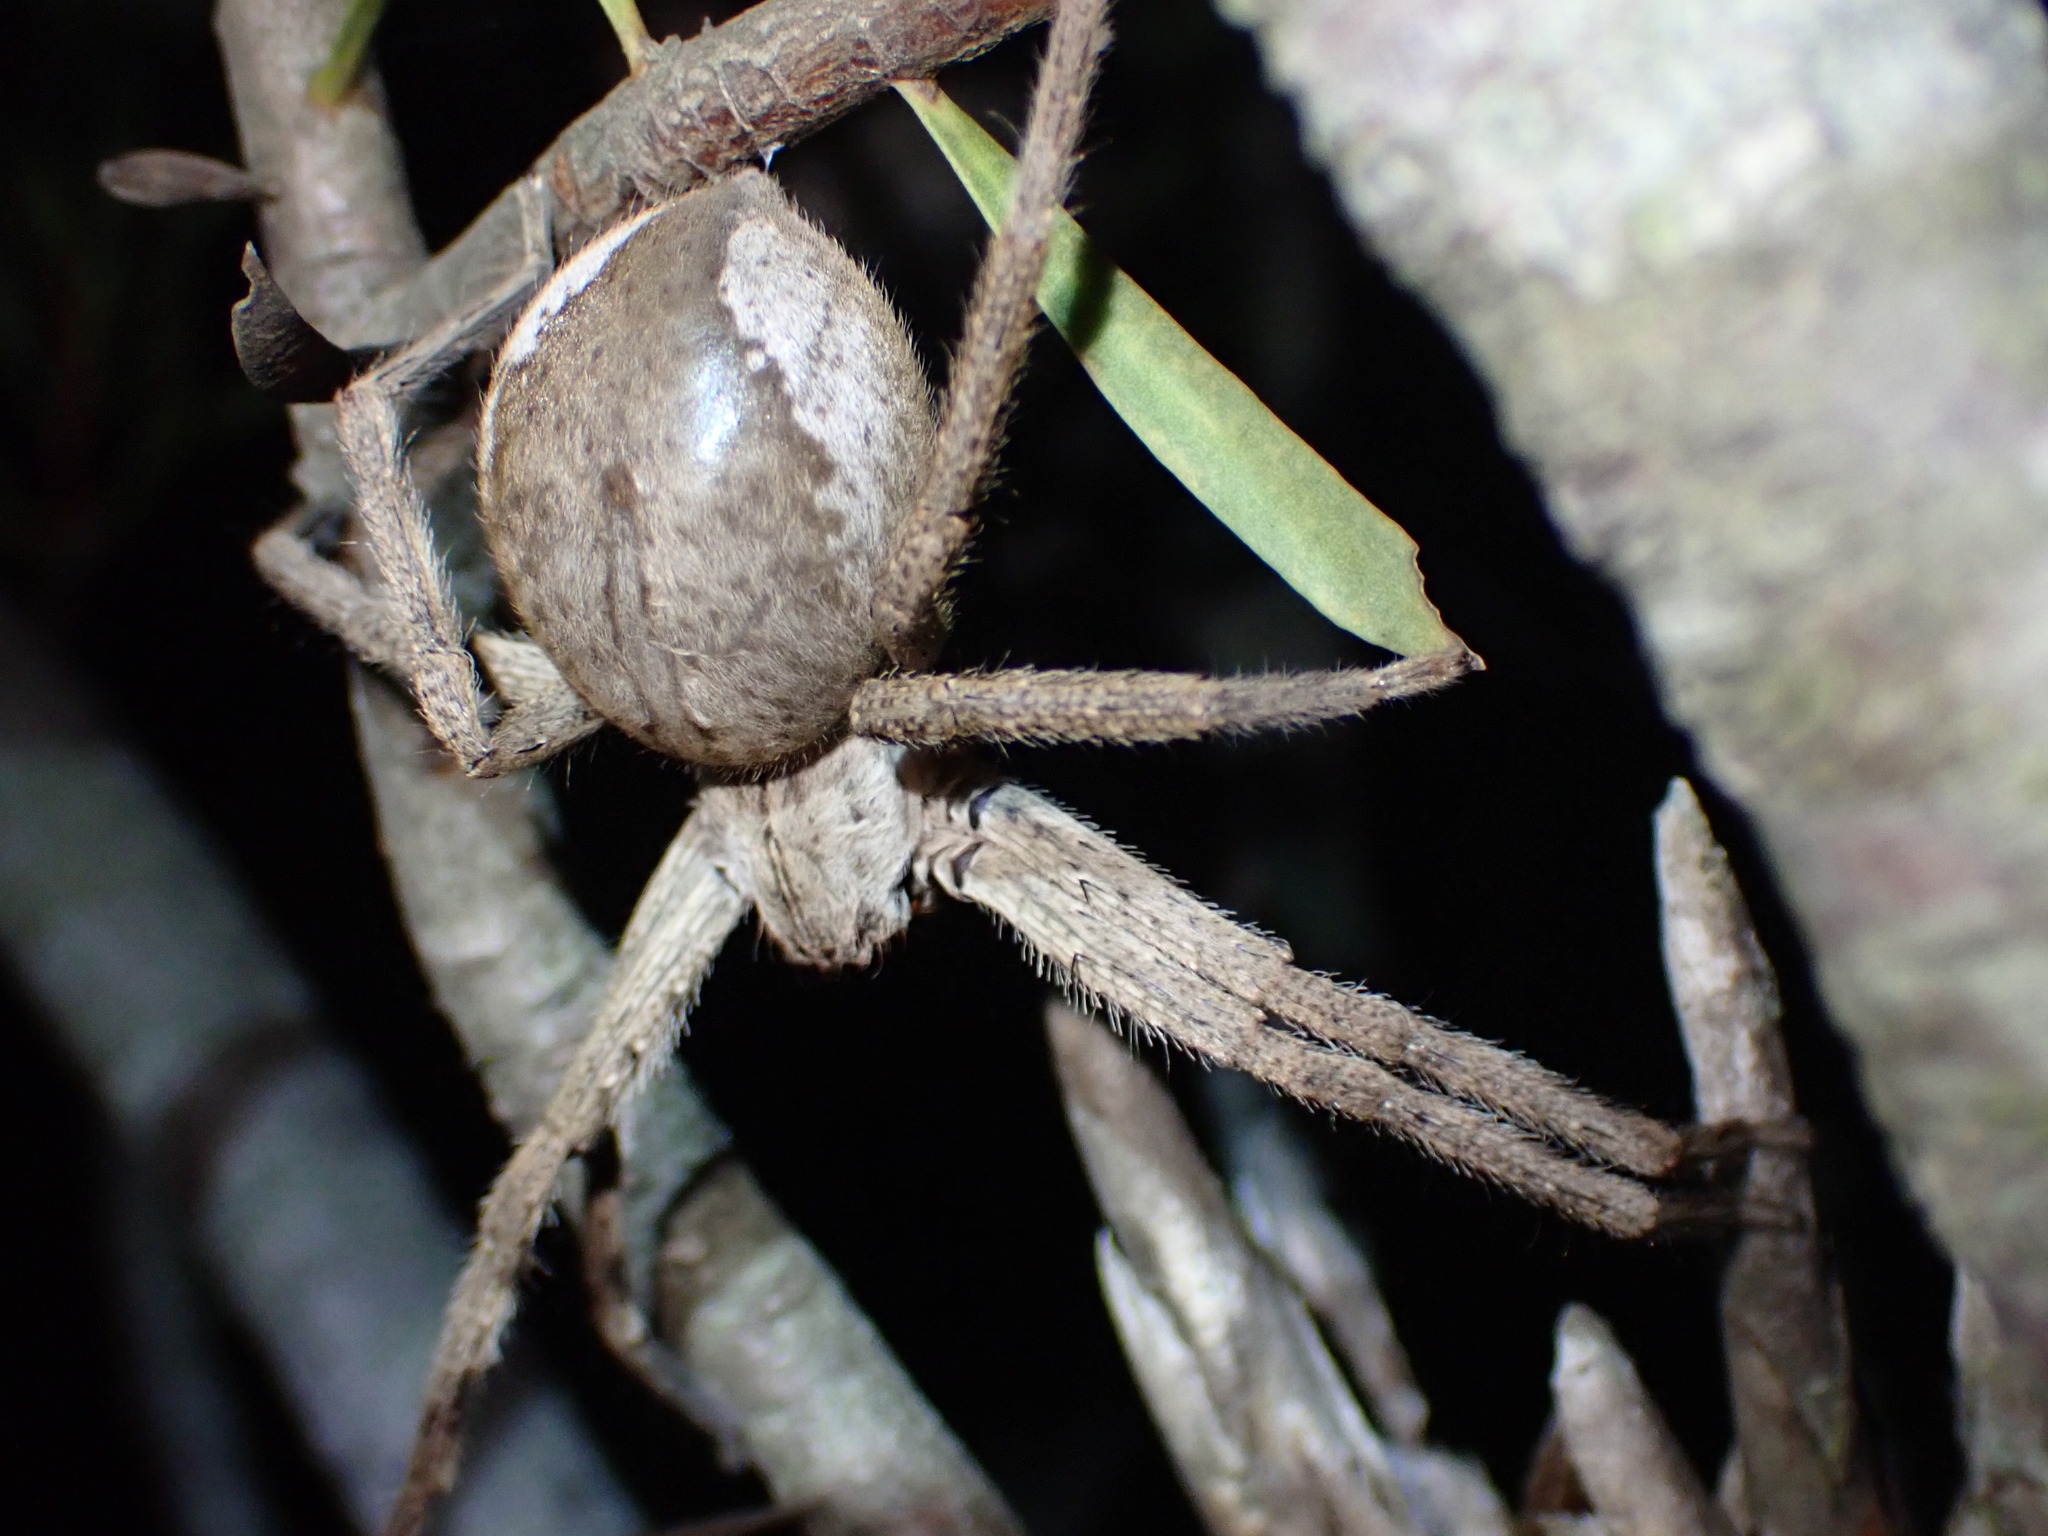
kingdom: Animalia
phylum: Arthropoda
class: Arachnida
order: Araneae
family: Sparassidae
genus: Palystes
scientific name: Palystes superciliosus
